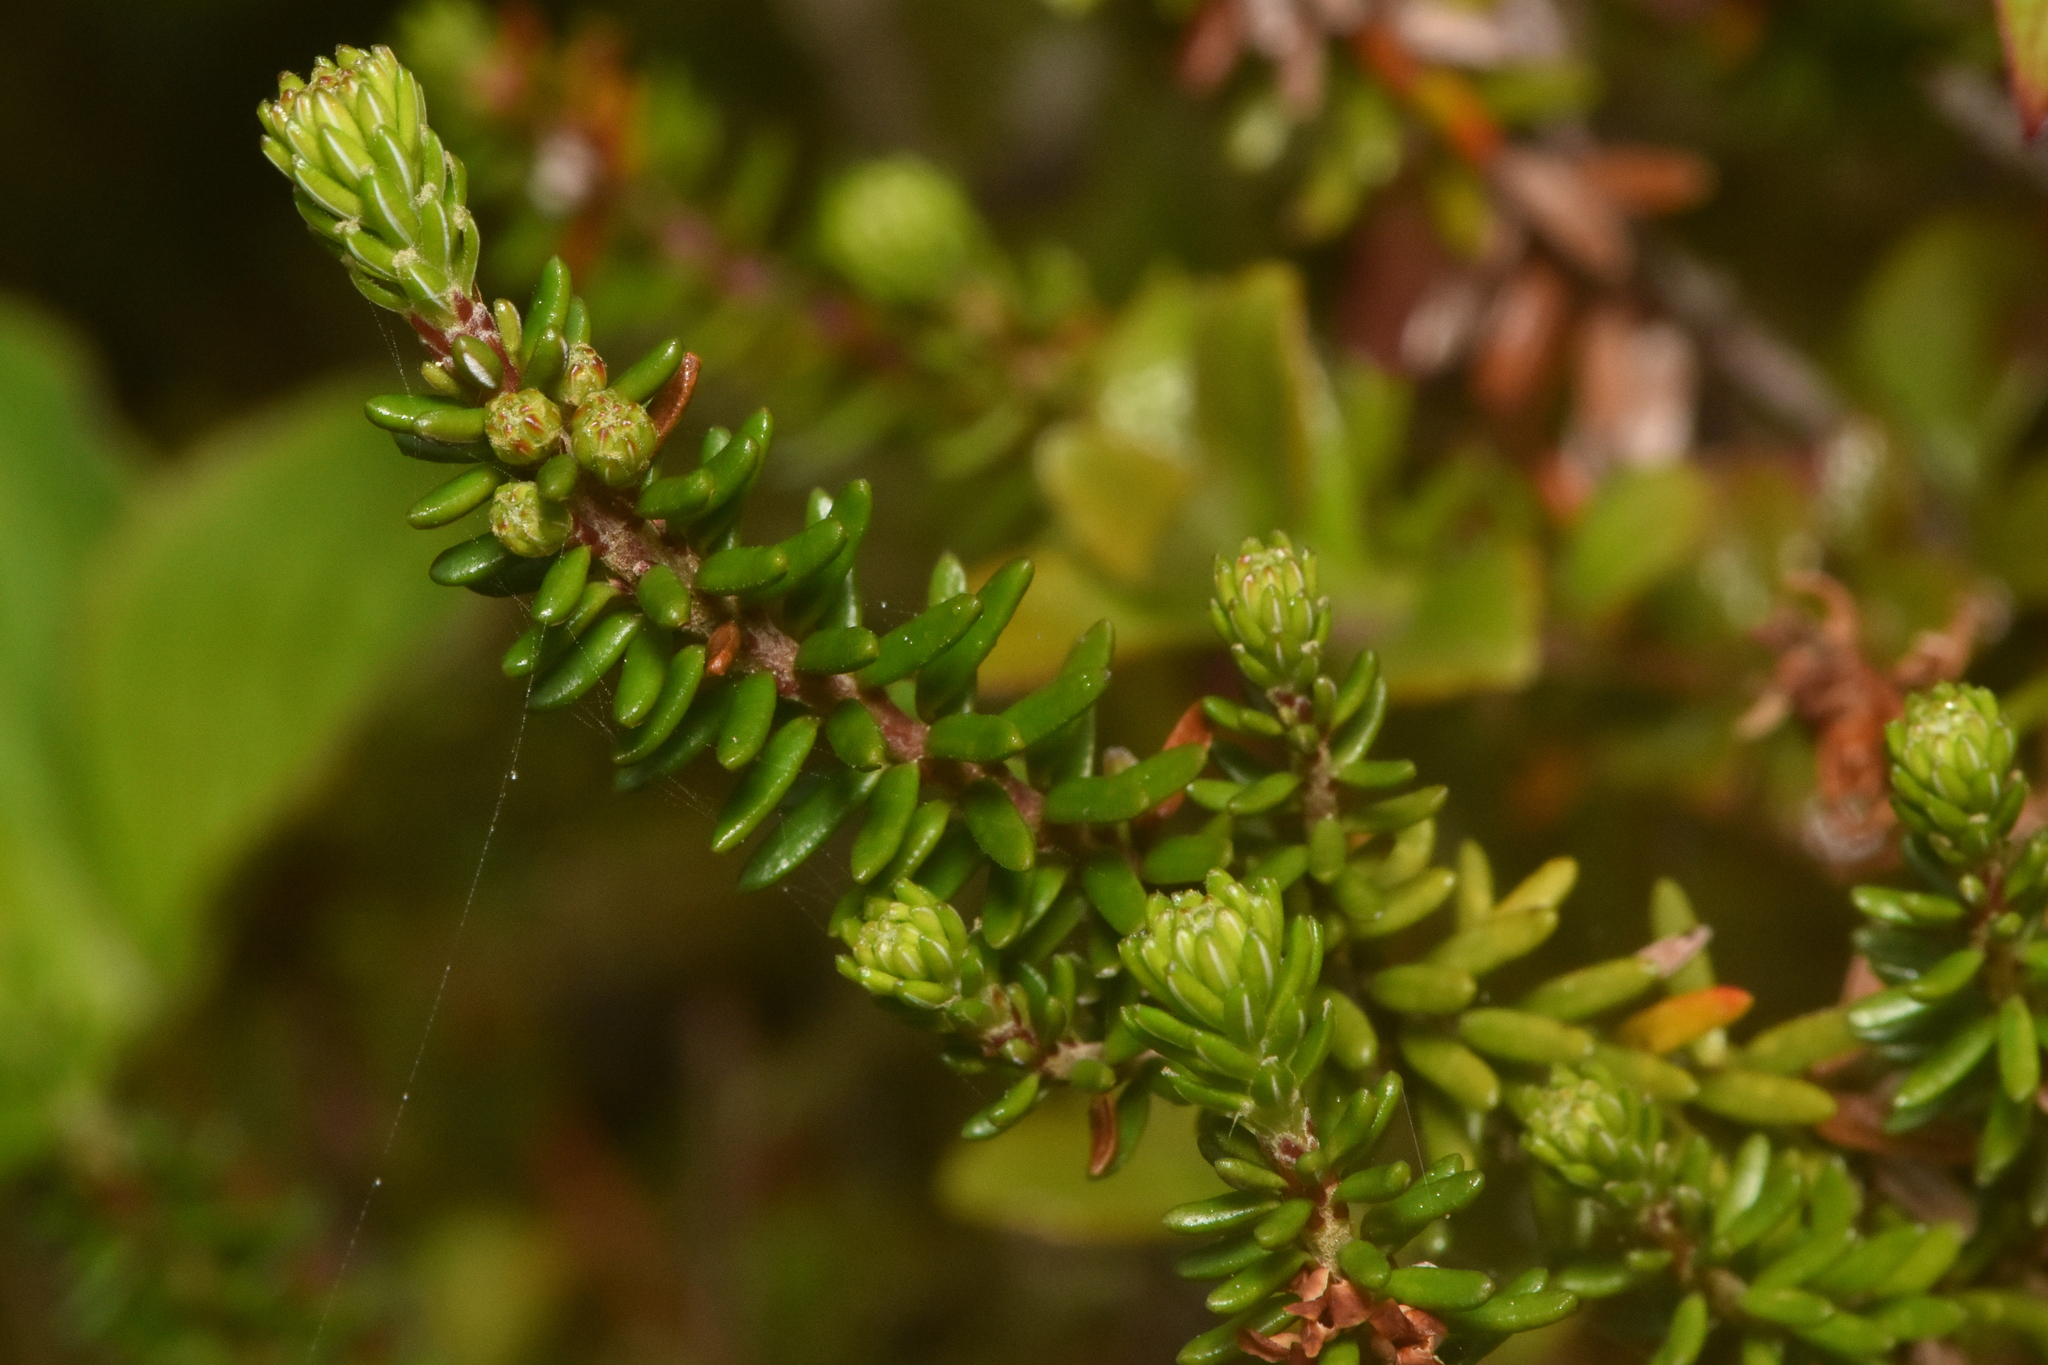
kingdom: Plantae
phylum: Tracheophyta
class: Magnoliopsida
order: Ericales
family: Ericaceae
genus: Empetrum
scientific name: Empetrum nigrum
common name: Black crowberry
